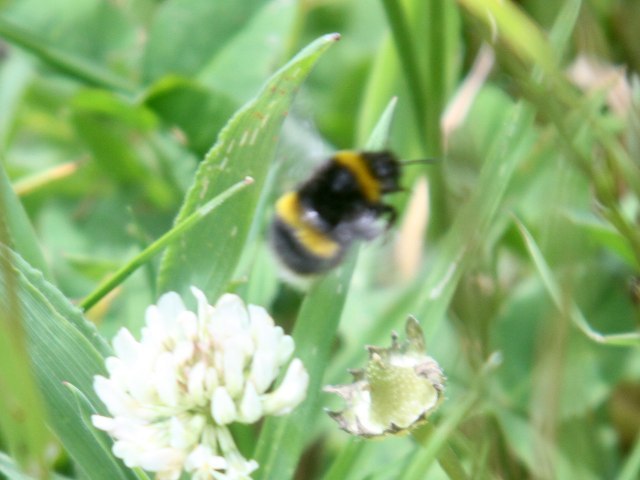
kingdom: Animalia
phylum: Arthropoda
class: Insecta
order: Hymenoptera
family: Apidae
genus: Bombus
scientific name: Bombus terrestris
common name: Buff-tailed bumblebee
